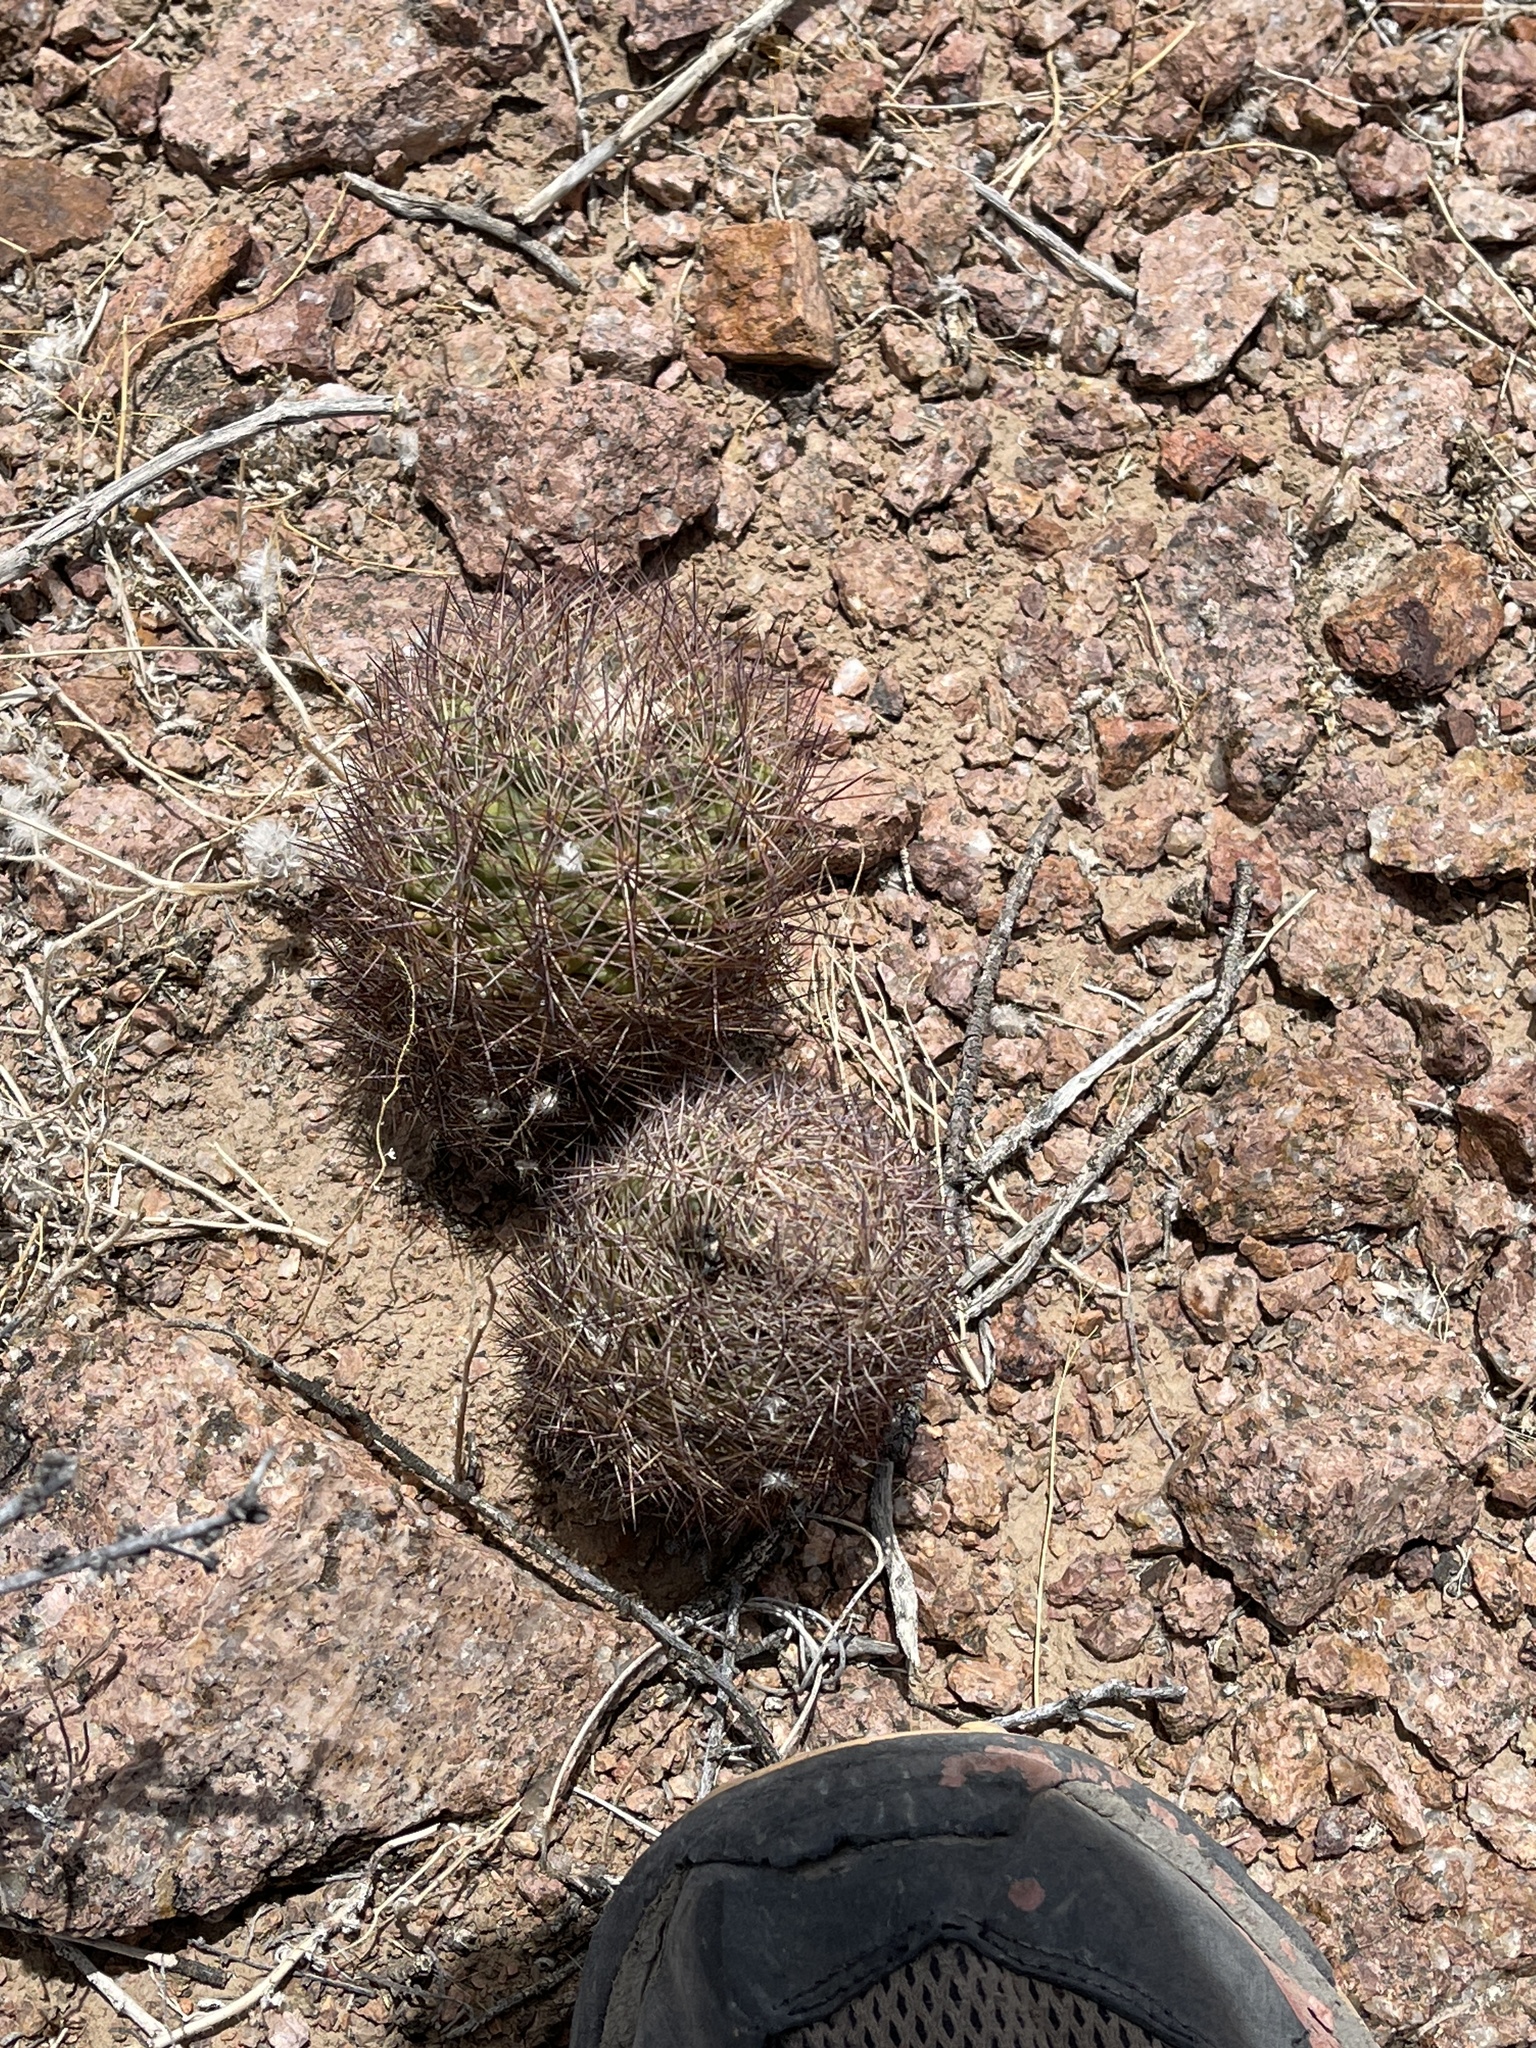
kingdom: Plantae
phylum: Tracheophyta
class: Magnoliopsida
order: Caryophyllales
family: Cactaceae
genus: Sclerocactus
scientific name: Sclerocactus intertextus
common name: White fish-hook cactus
